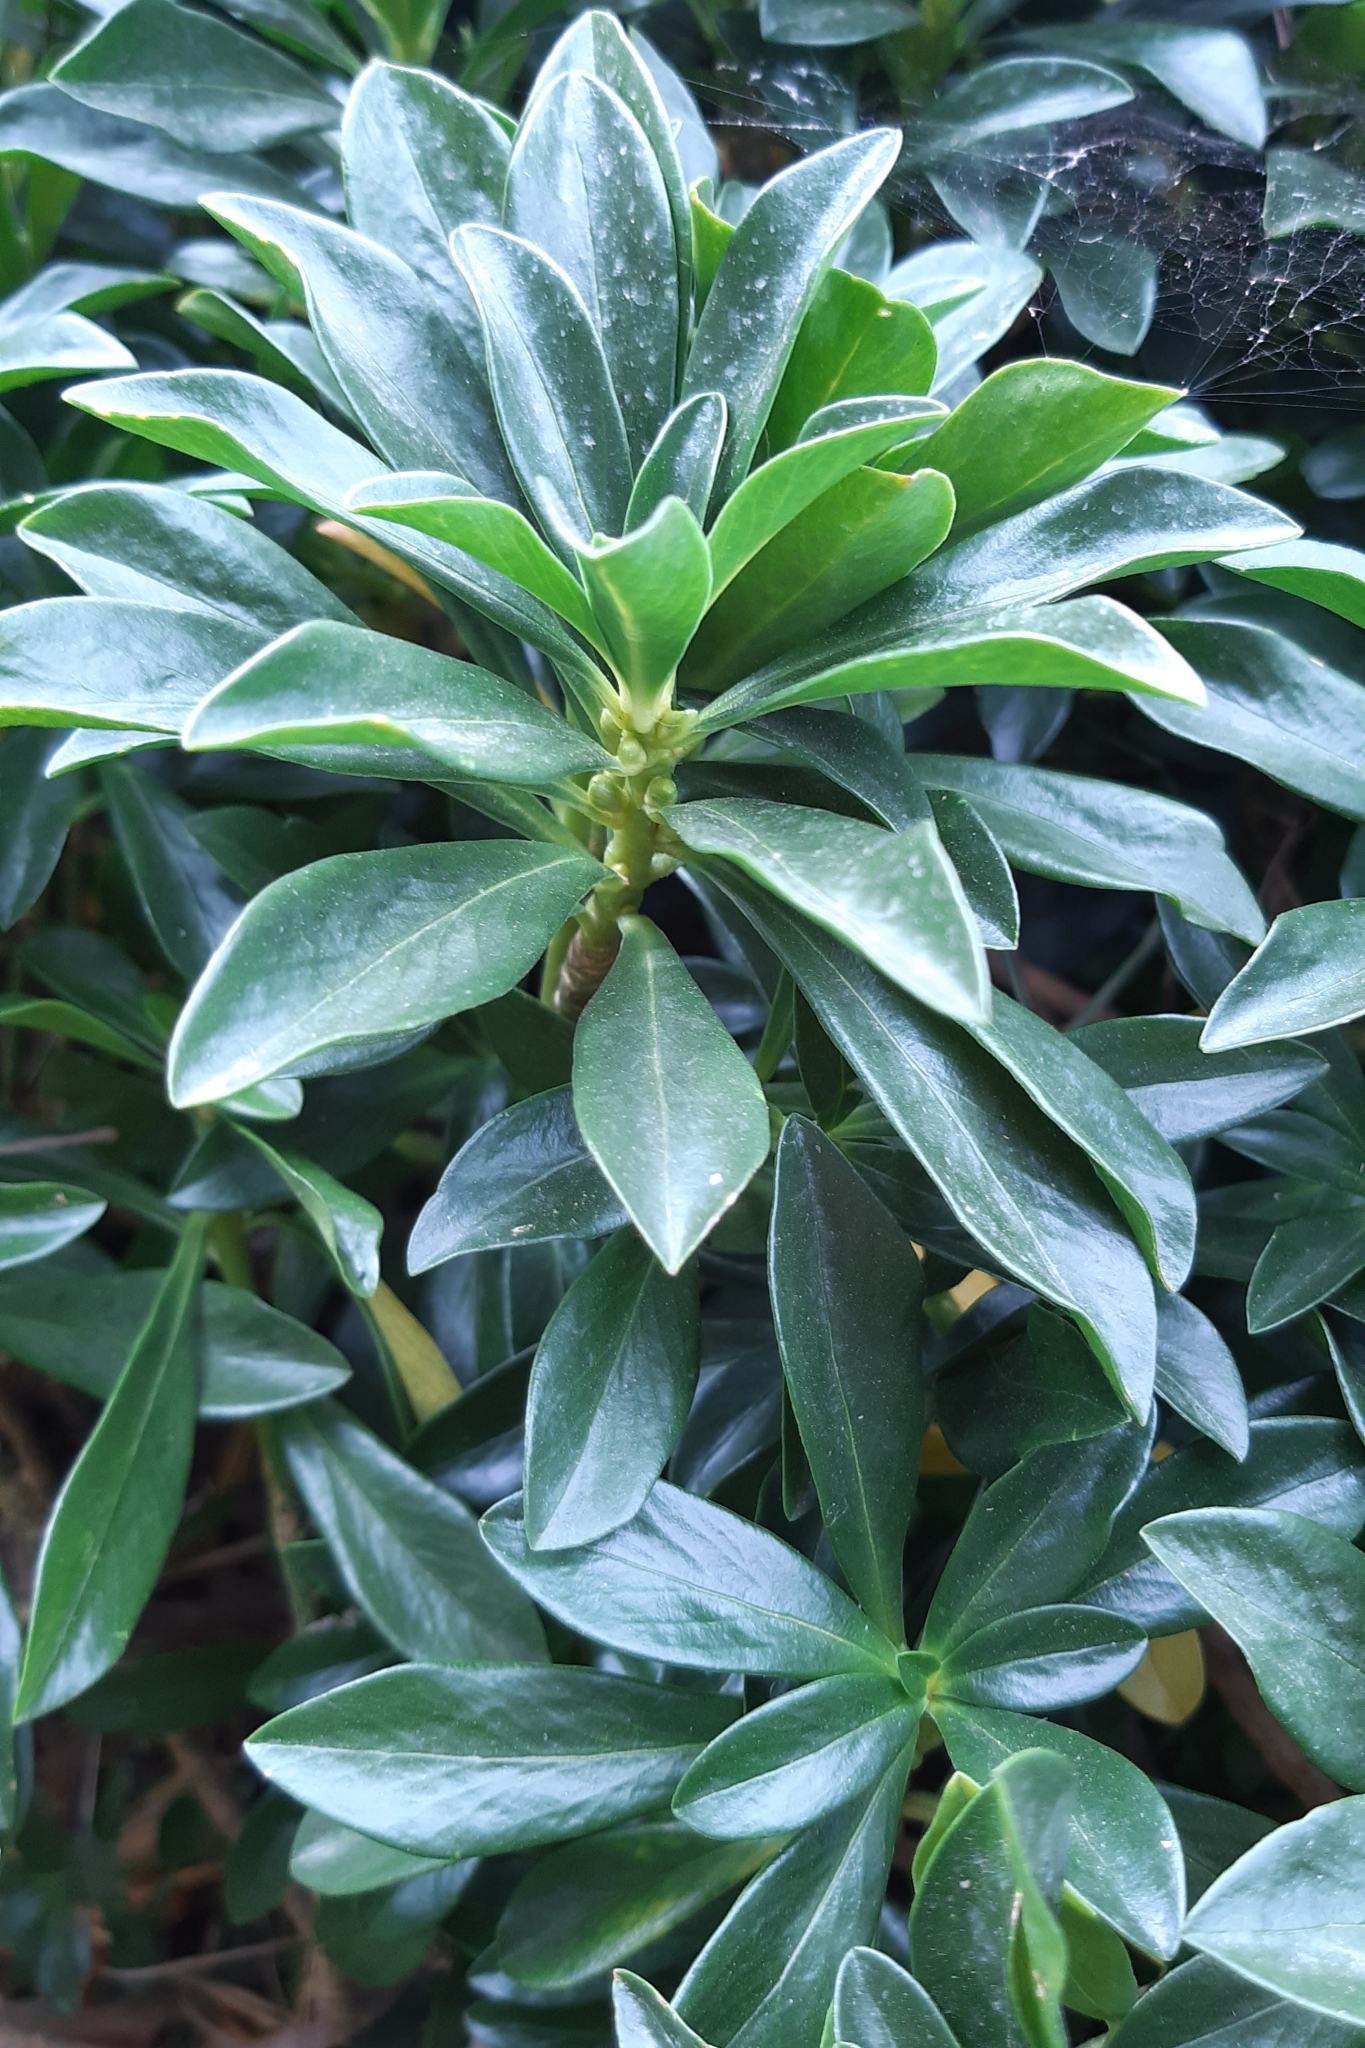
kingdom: Plantae
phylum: Tracheophyta
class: Magnoliopsida
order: Malvales
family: Thymelaeaceae
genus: Daphne
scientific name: Daphne laureola
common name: Spurge-laurel
